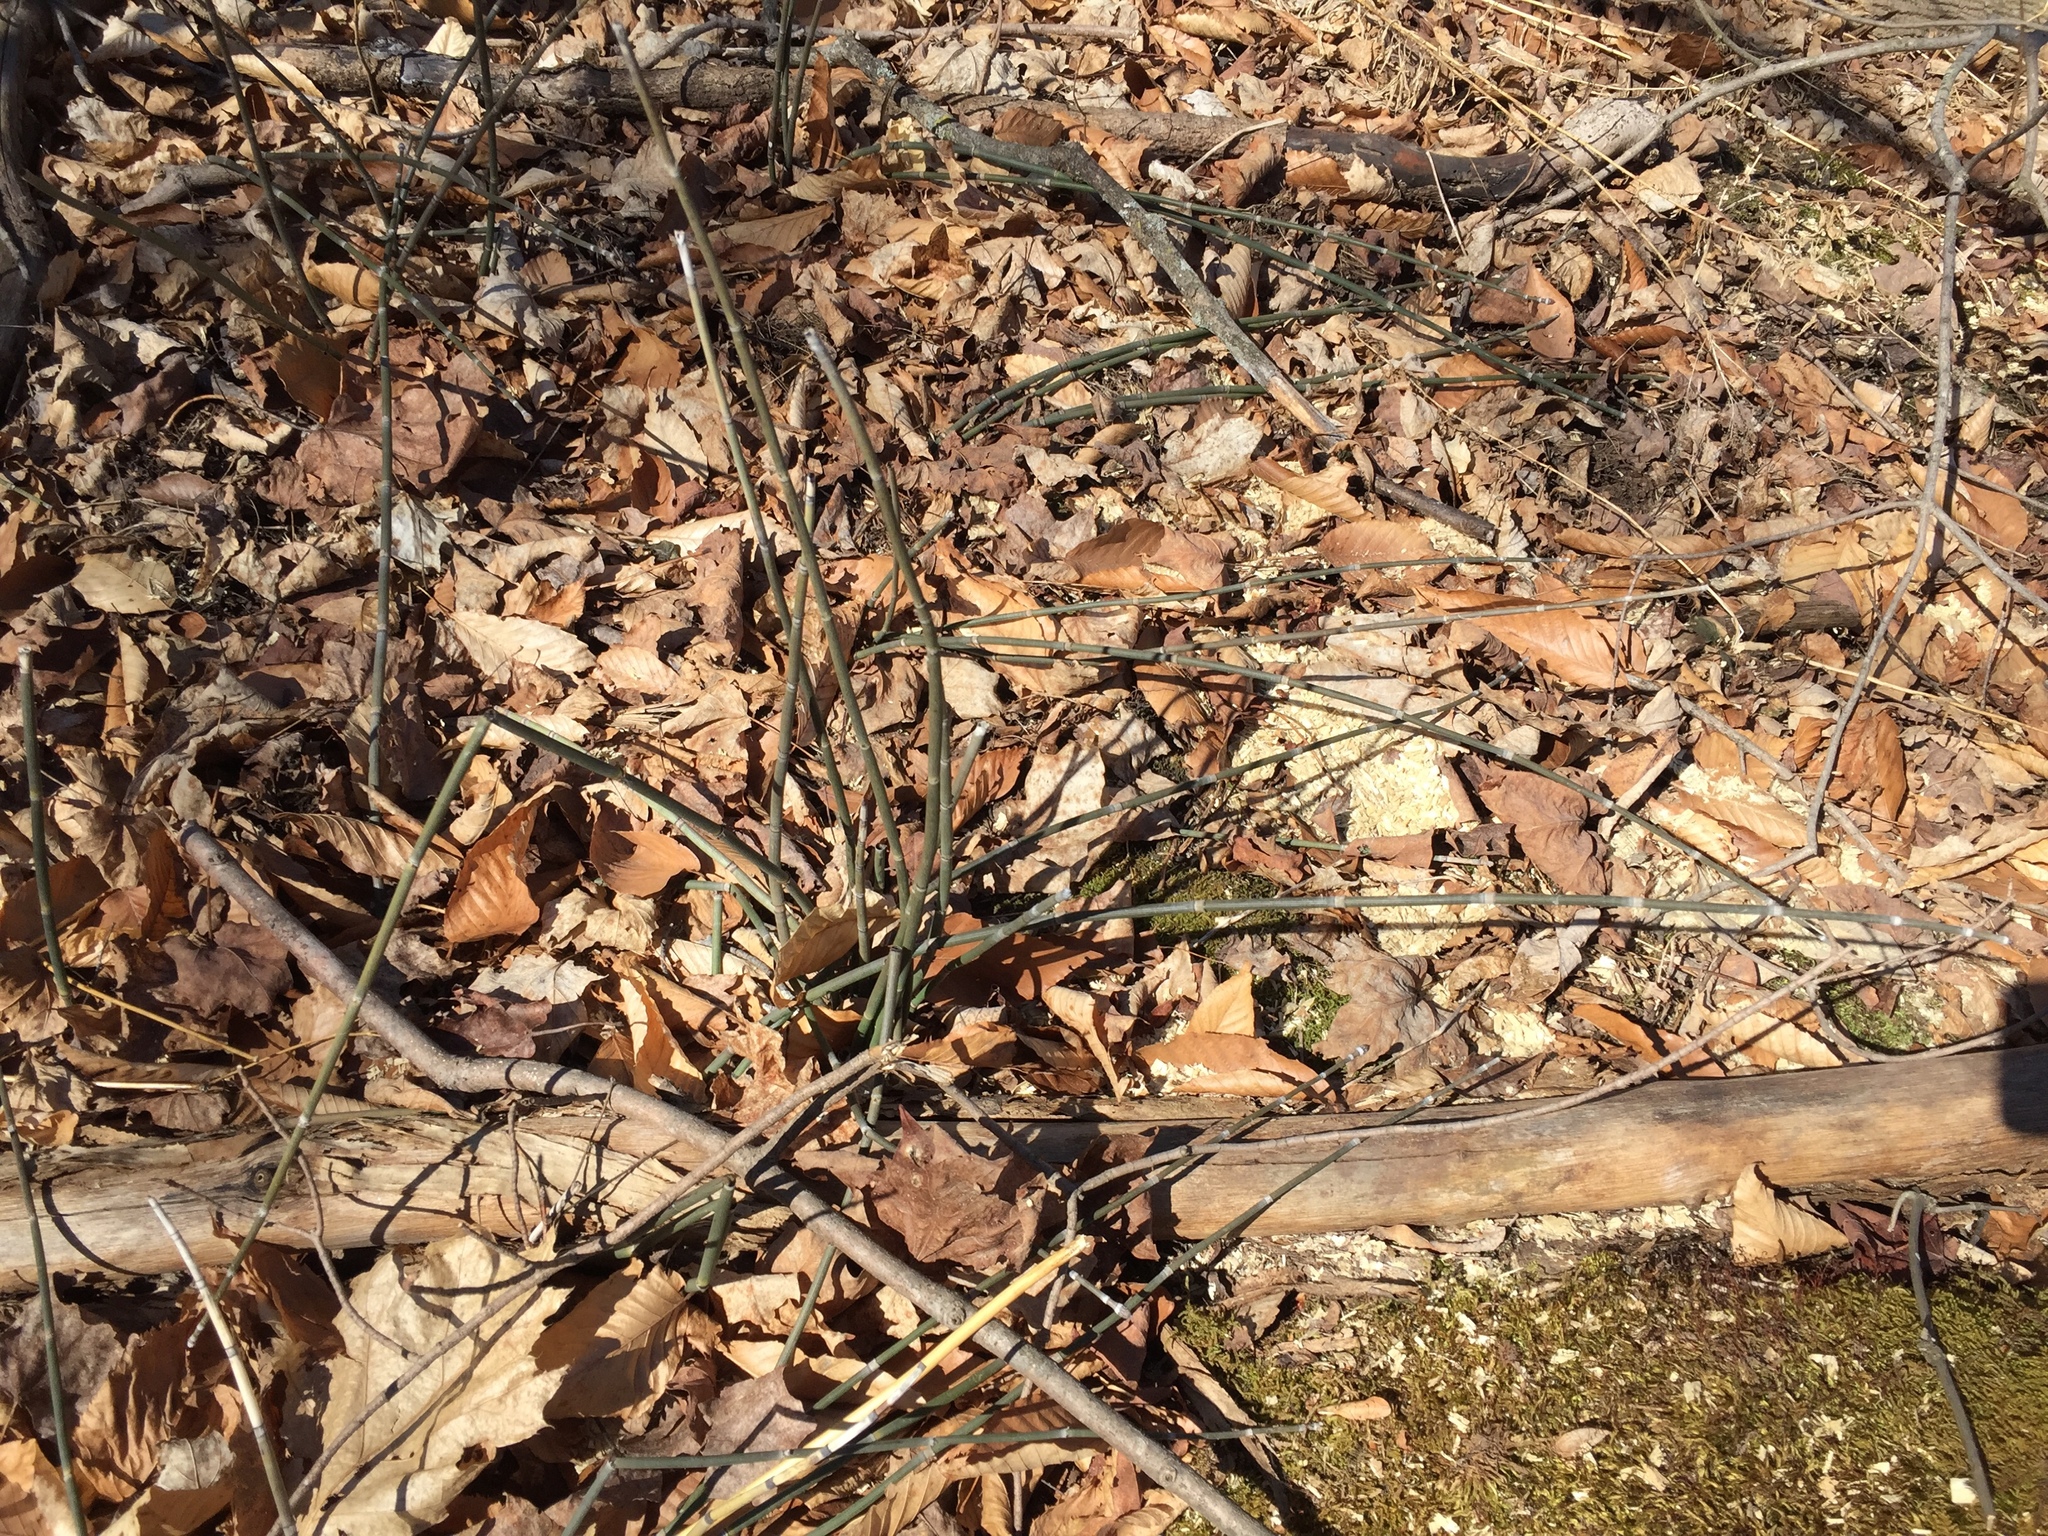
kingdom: Plantae
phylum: Tracheophyta
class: Polypodiopsida
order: Equisetales
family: Equisetaceae
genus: Equisetum
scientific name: Equisetum hyemale
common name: Rough horsetail
